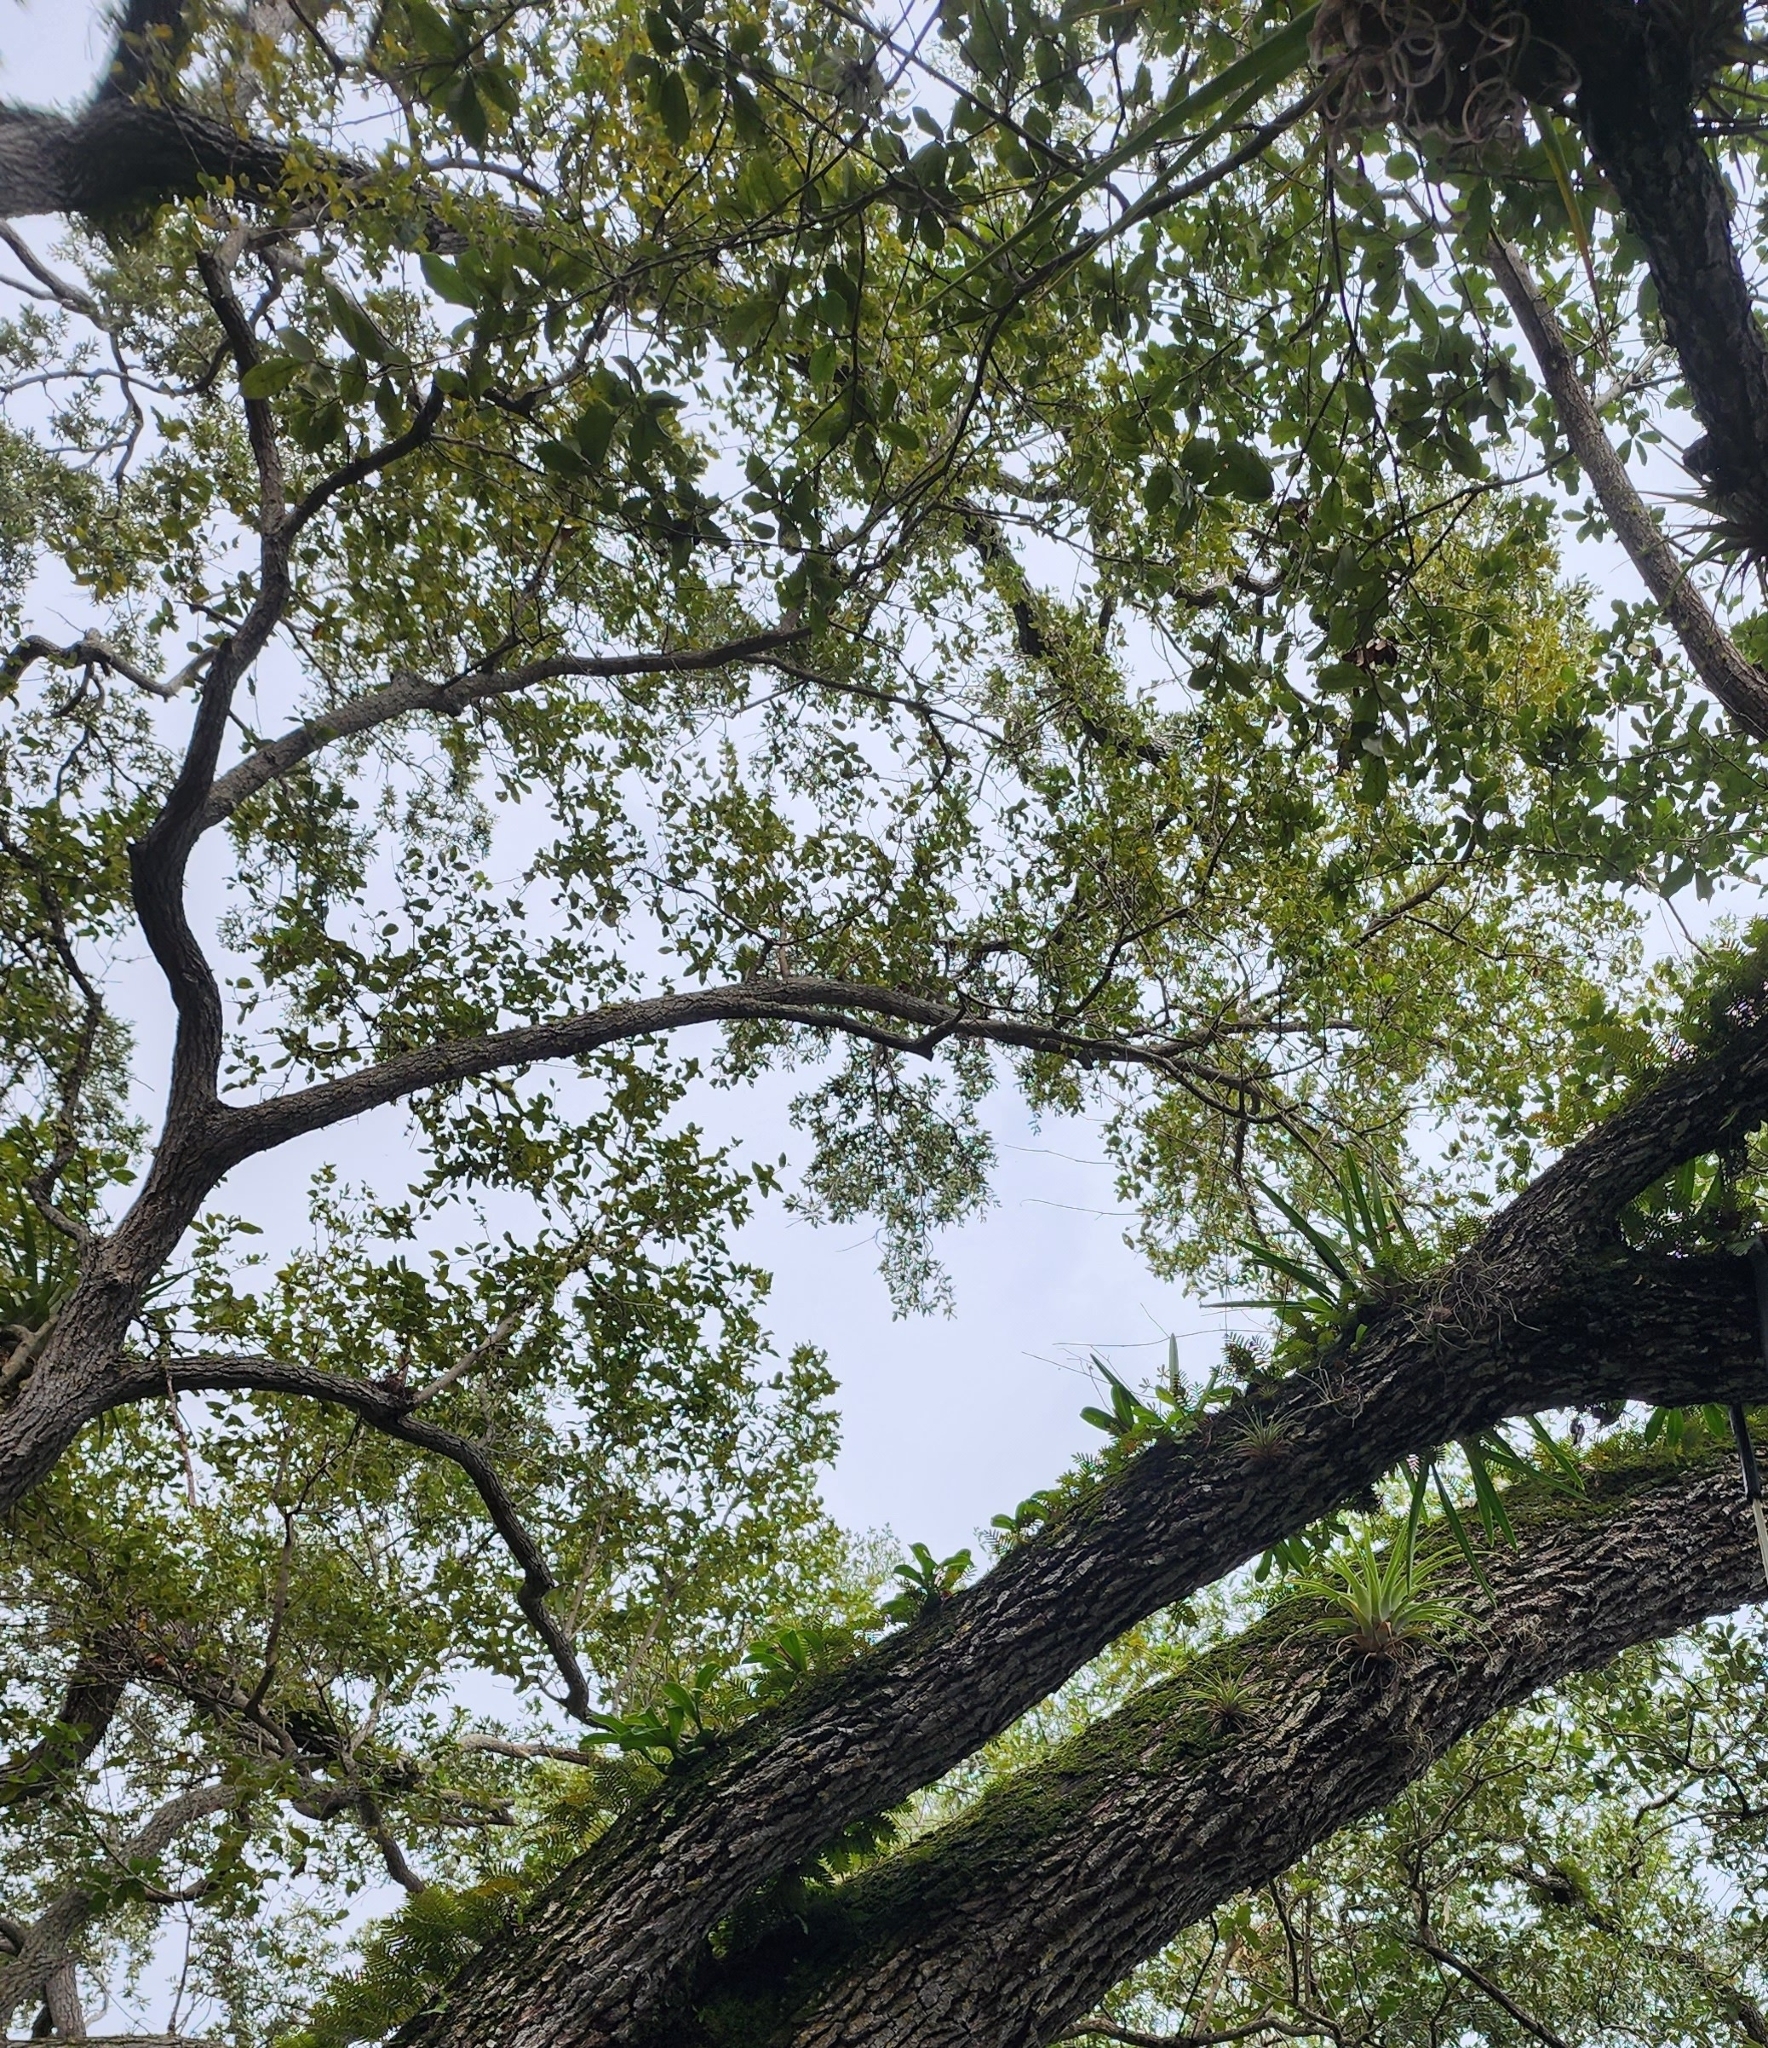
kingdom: Plantae
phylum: Tracheophyta
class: Liliopsida
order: Asparagales
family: Orchidaceae
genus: Encyclia
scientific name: Encyclia tampensis
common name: Florida butterfly orchid
